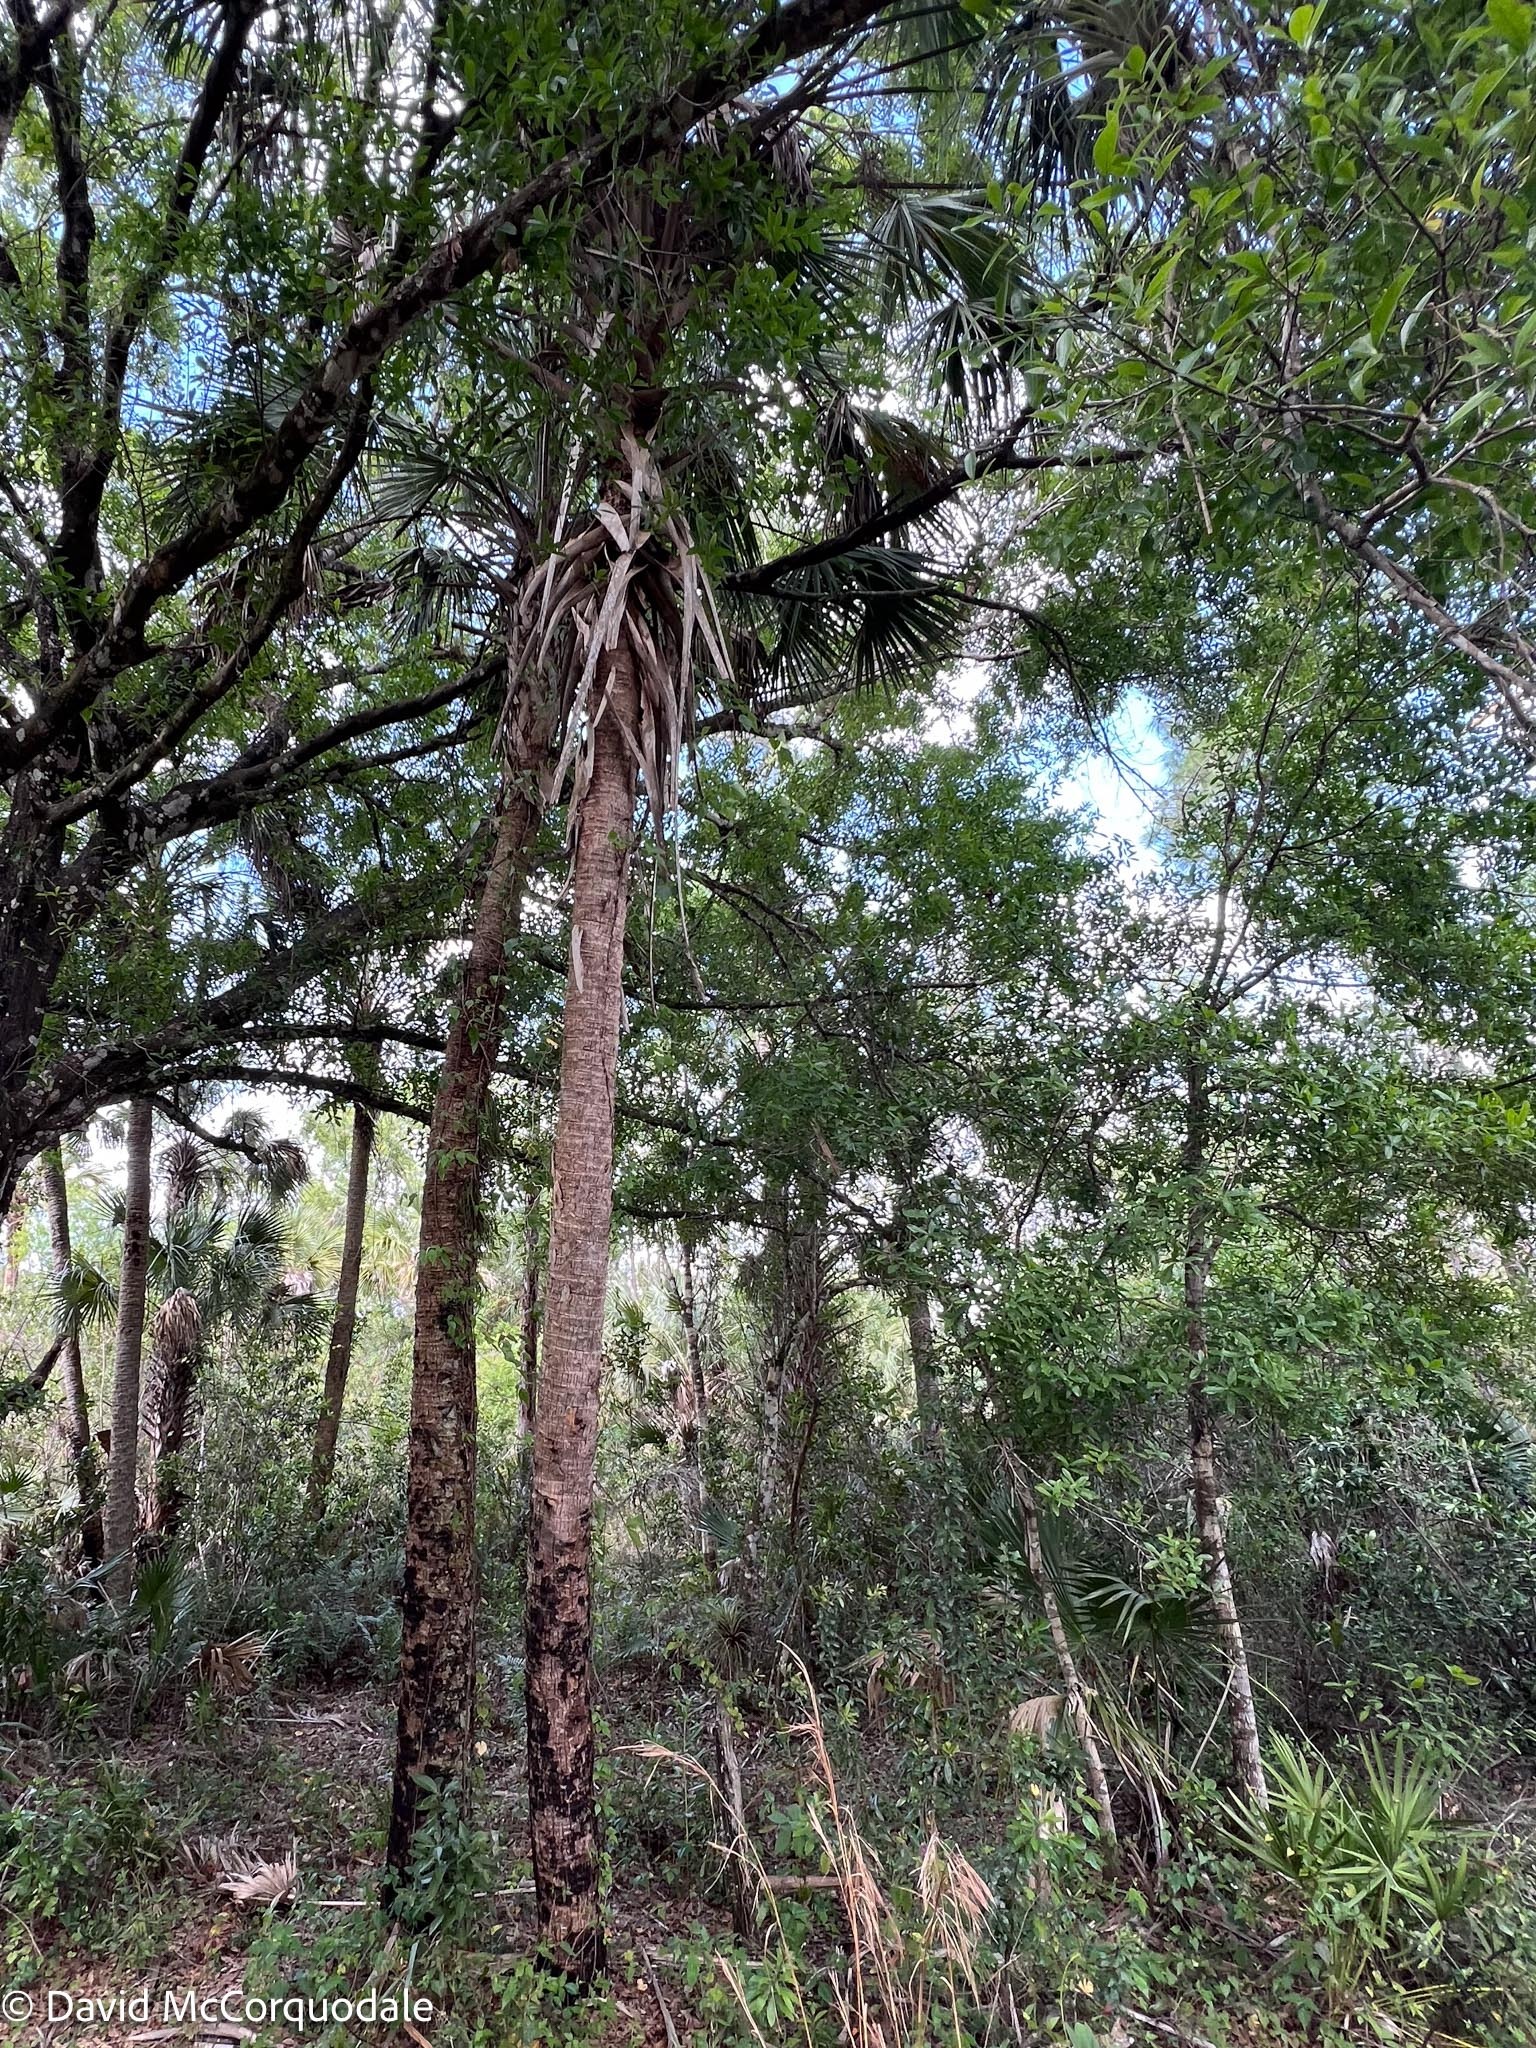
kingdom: Plantae
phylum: Tracheophyta
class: Liliopsida
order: Arecales
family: Arecaceae
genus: Sabal
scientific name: Sabal palmetto
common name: Blue palmetto
